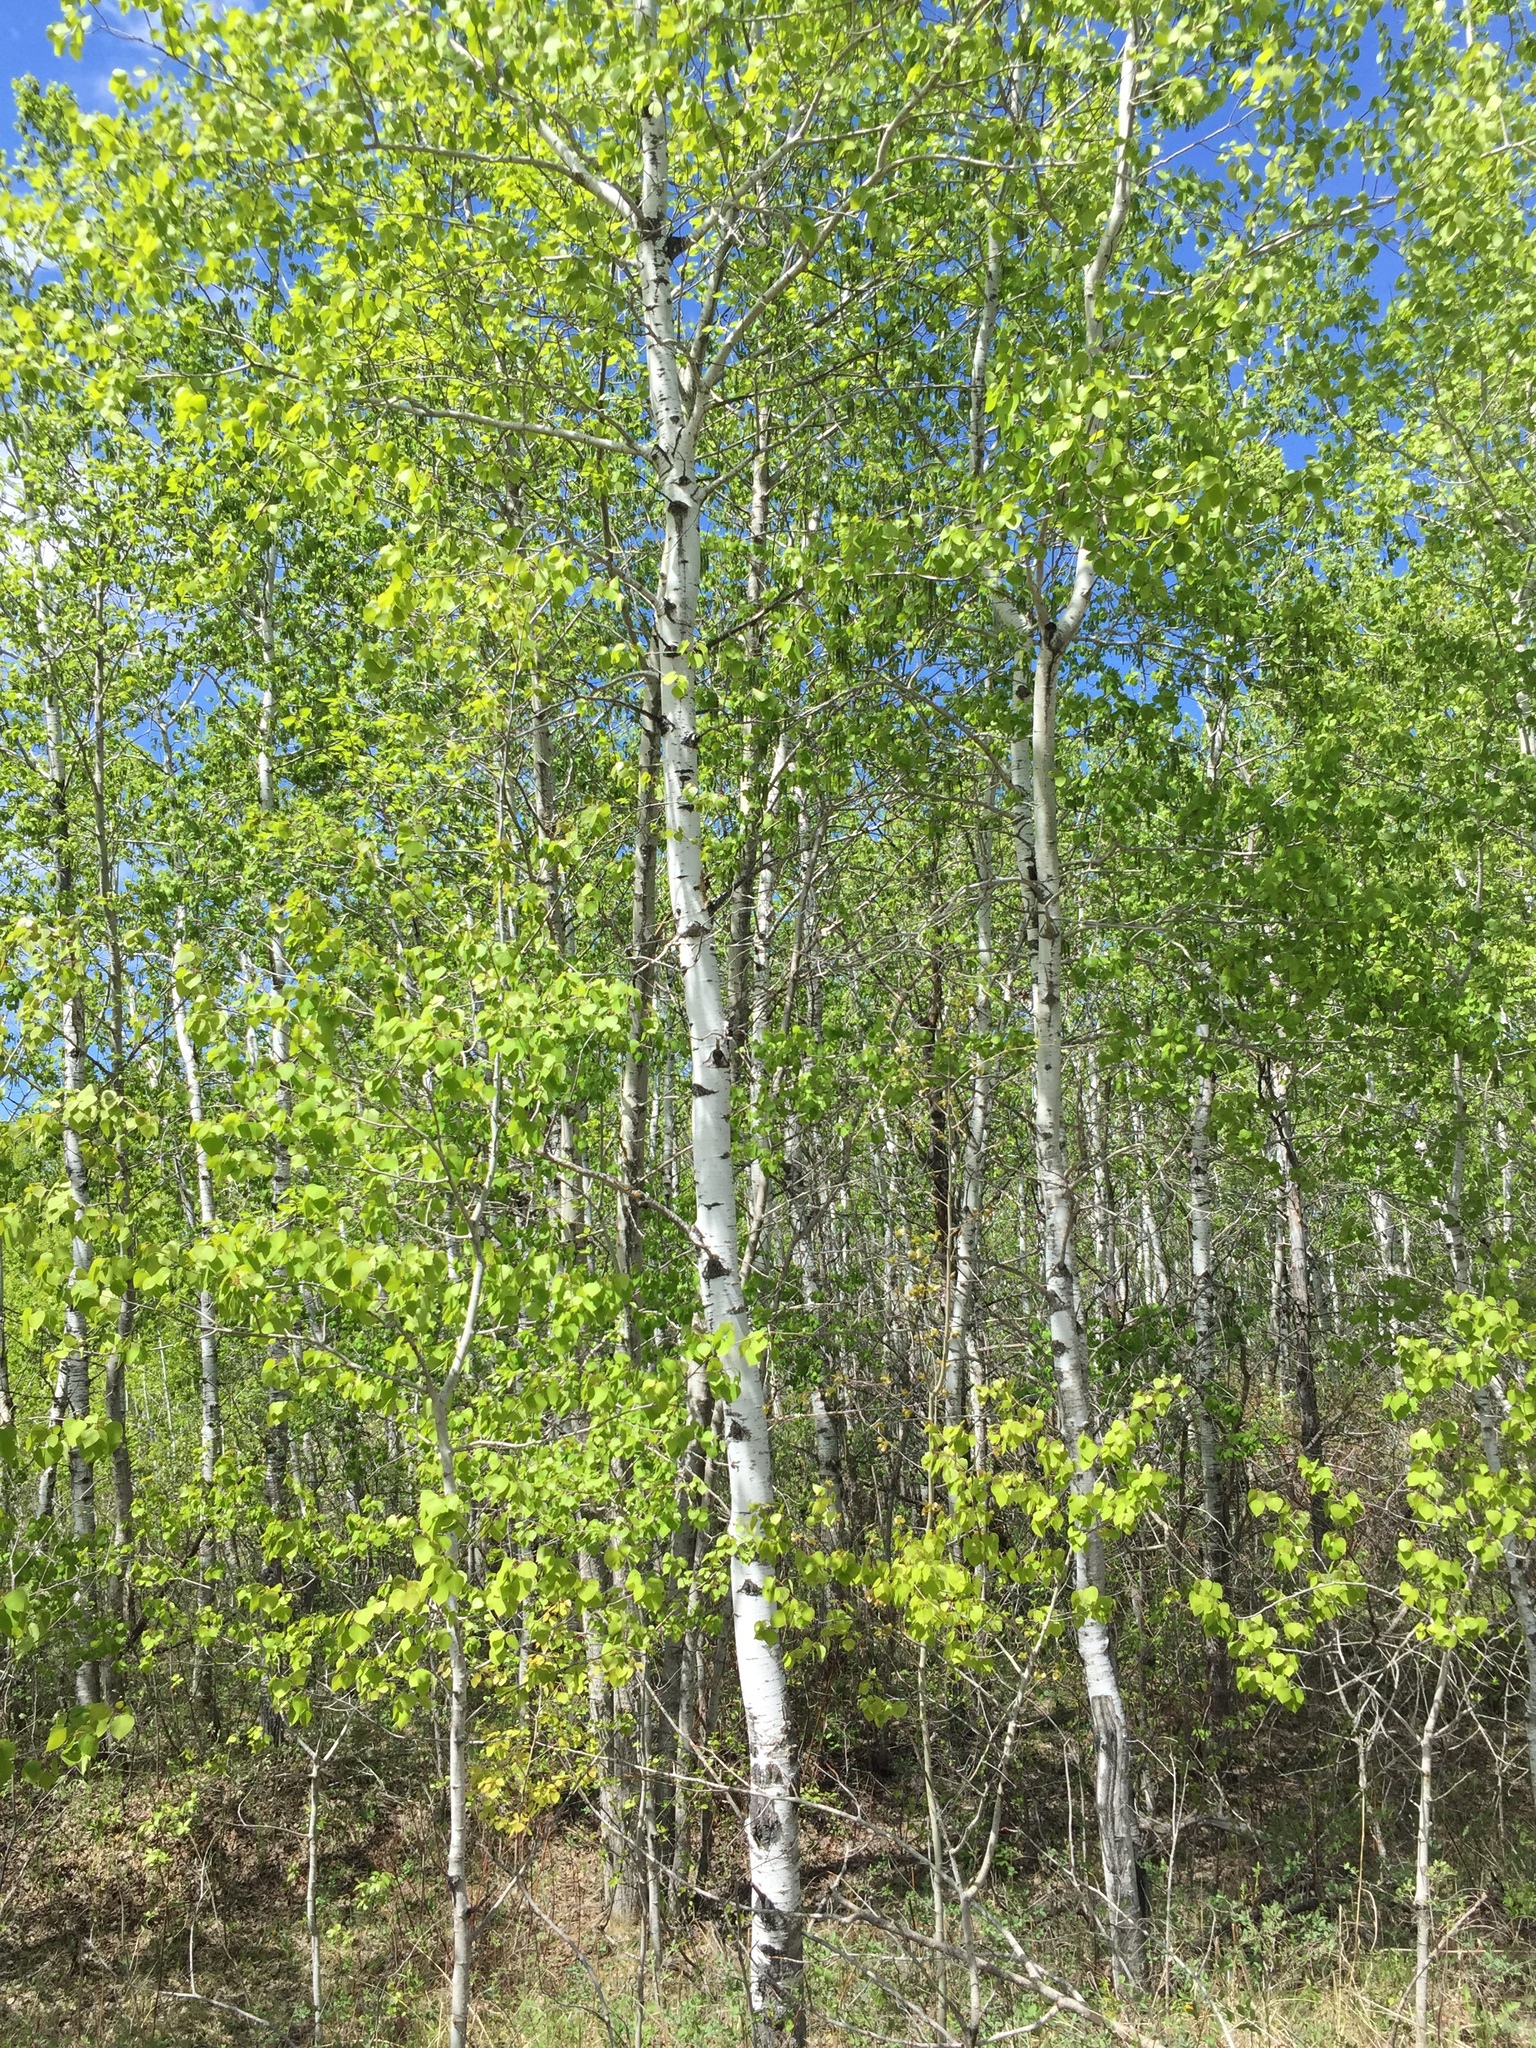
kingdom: Plantae
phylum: Tracheophyta
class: Magnoliopsida
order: Malpighiales
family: Salicaceae
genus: Populus
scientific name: Populus tremuloides
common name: Quaking aspen
